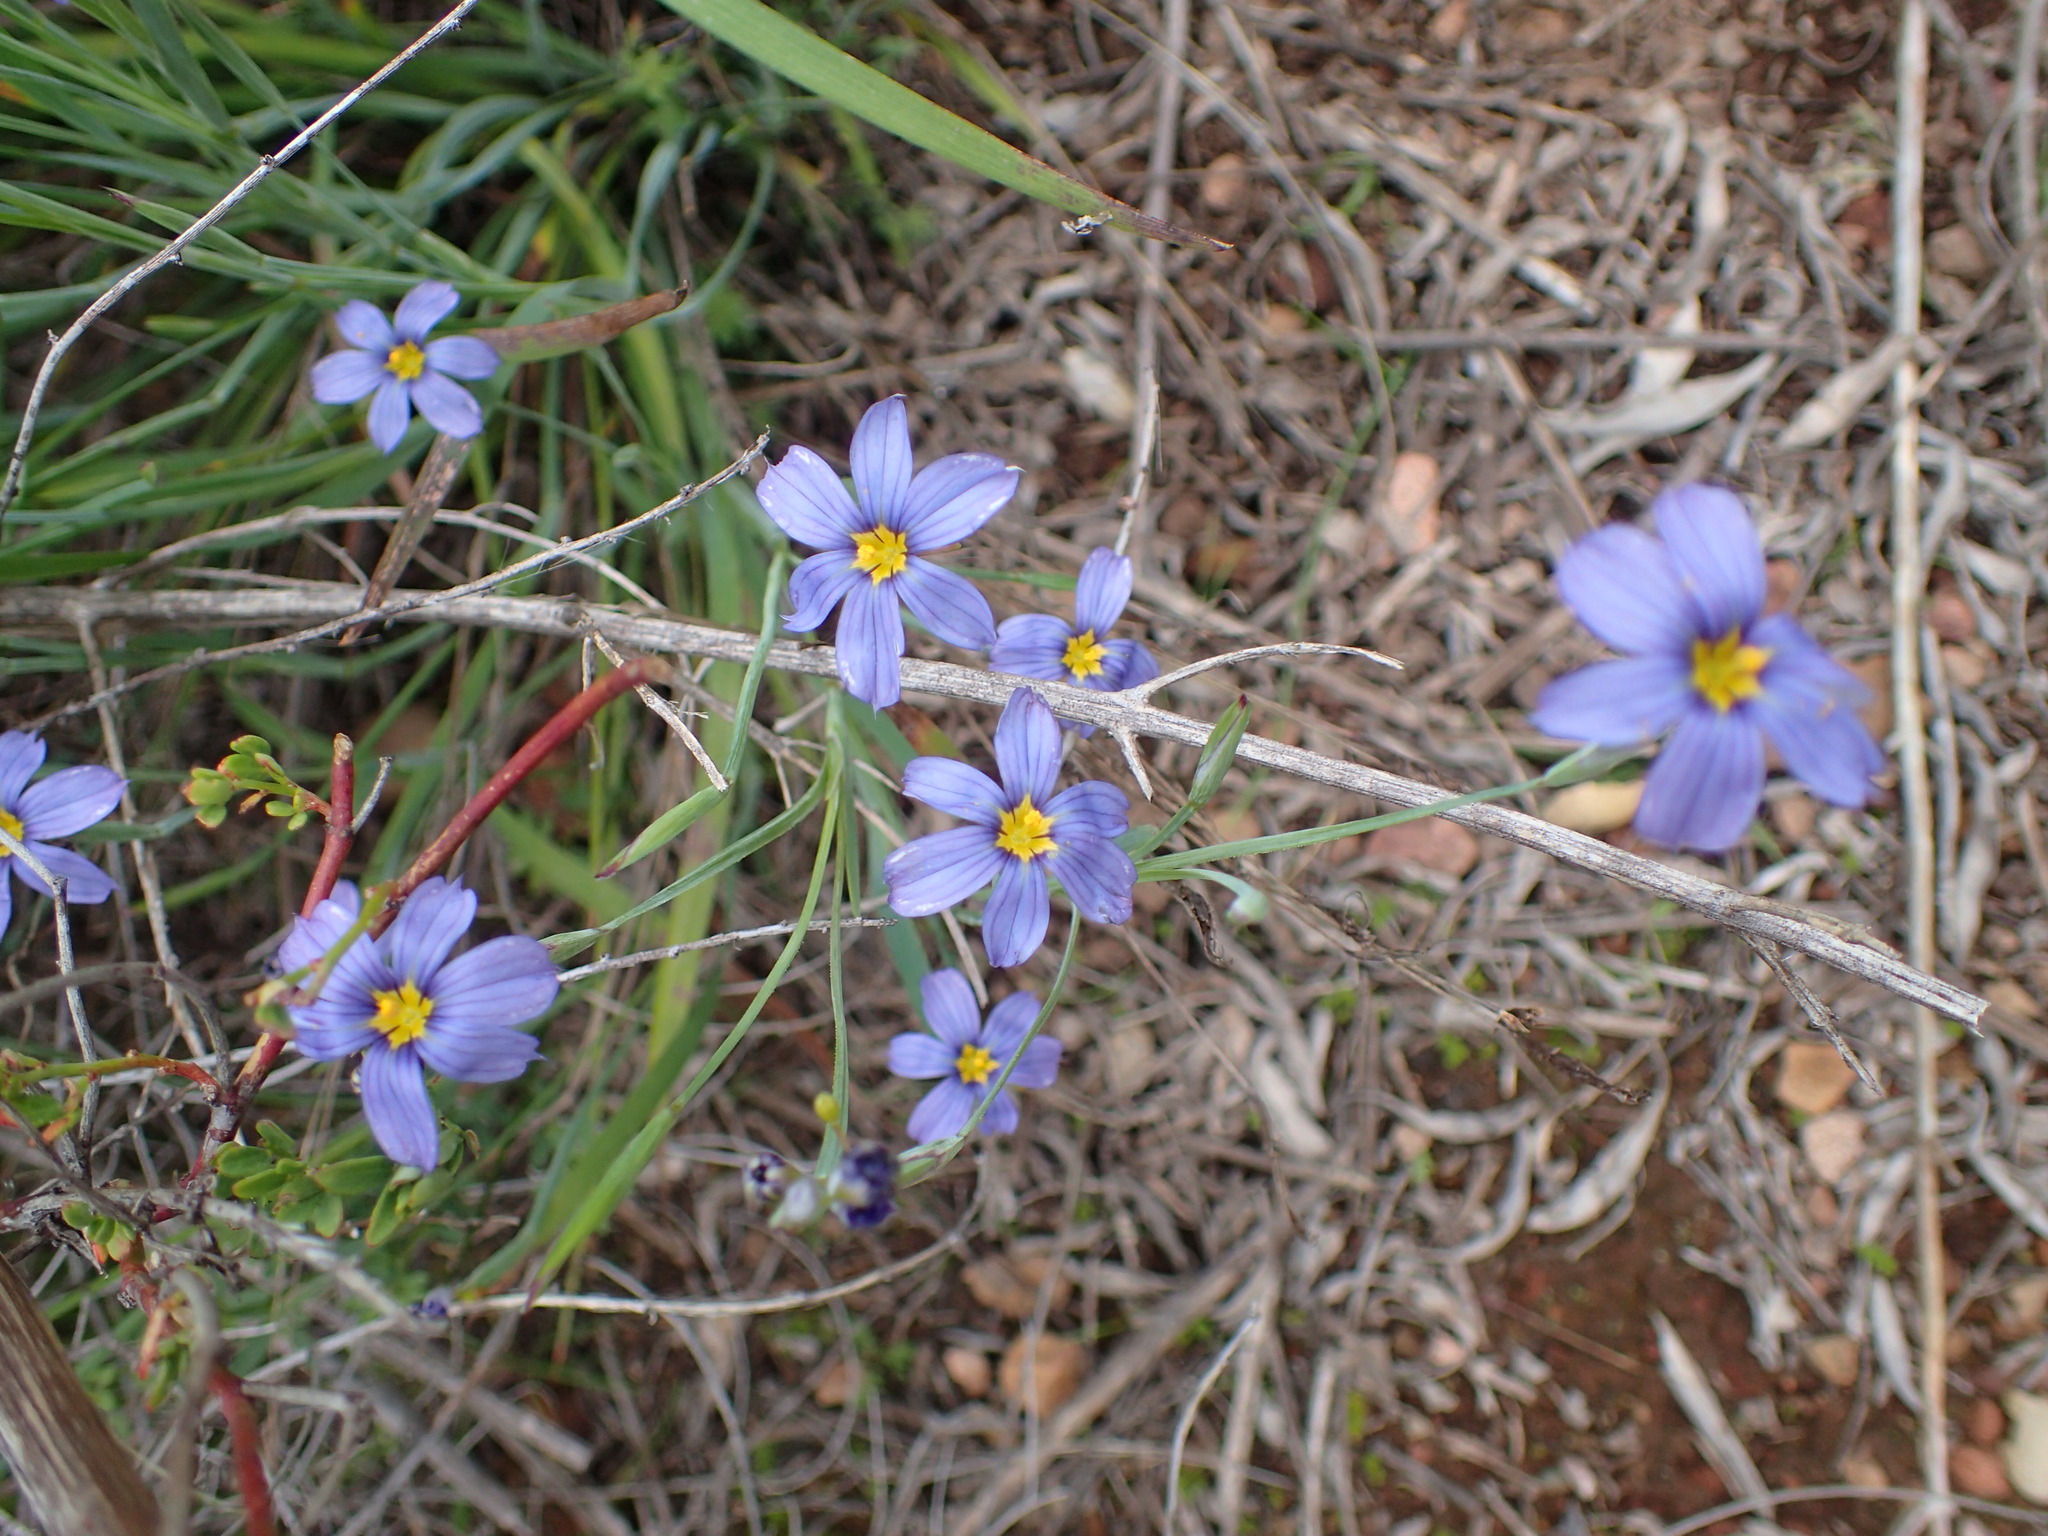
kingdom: Plantae
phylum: Tracheophyta
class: Liliopsida
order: Asparagales
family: Iridaceae
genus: Sisyrinchium
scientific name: Sisyrinchium bellum
